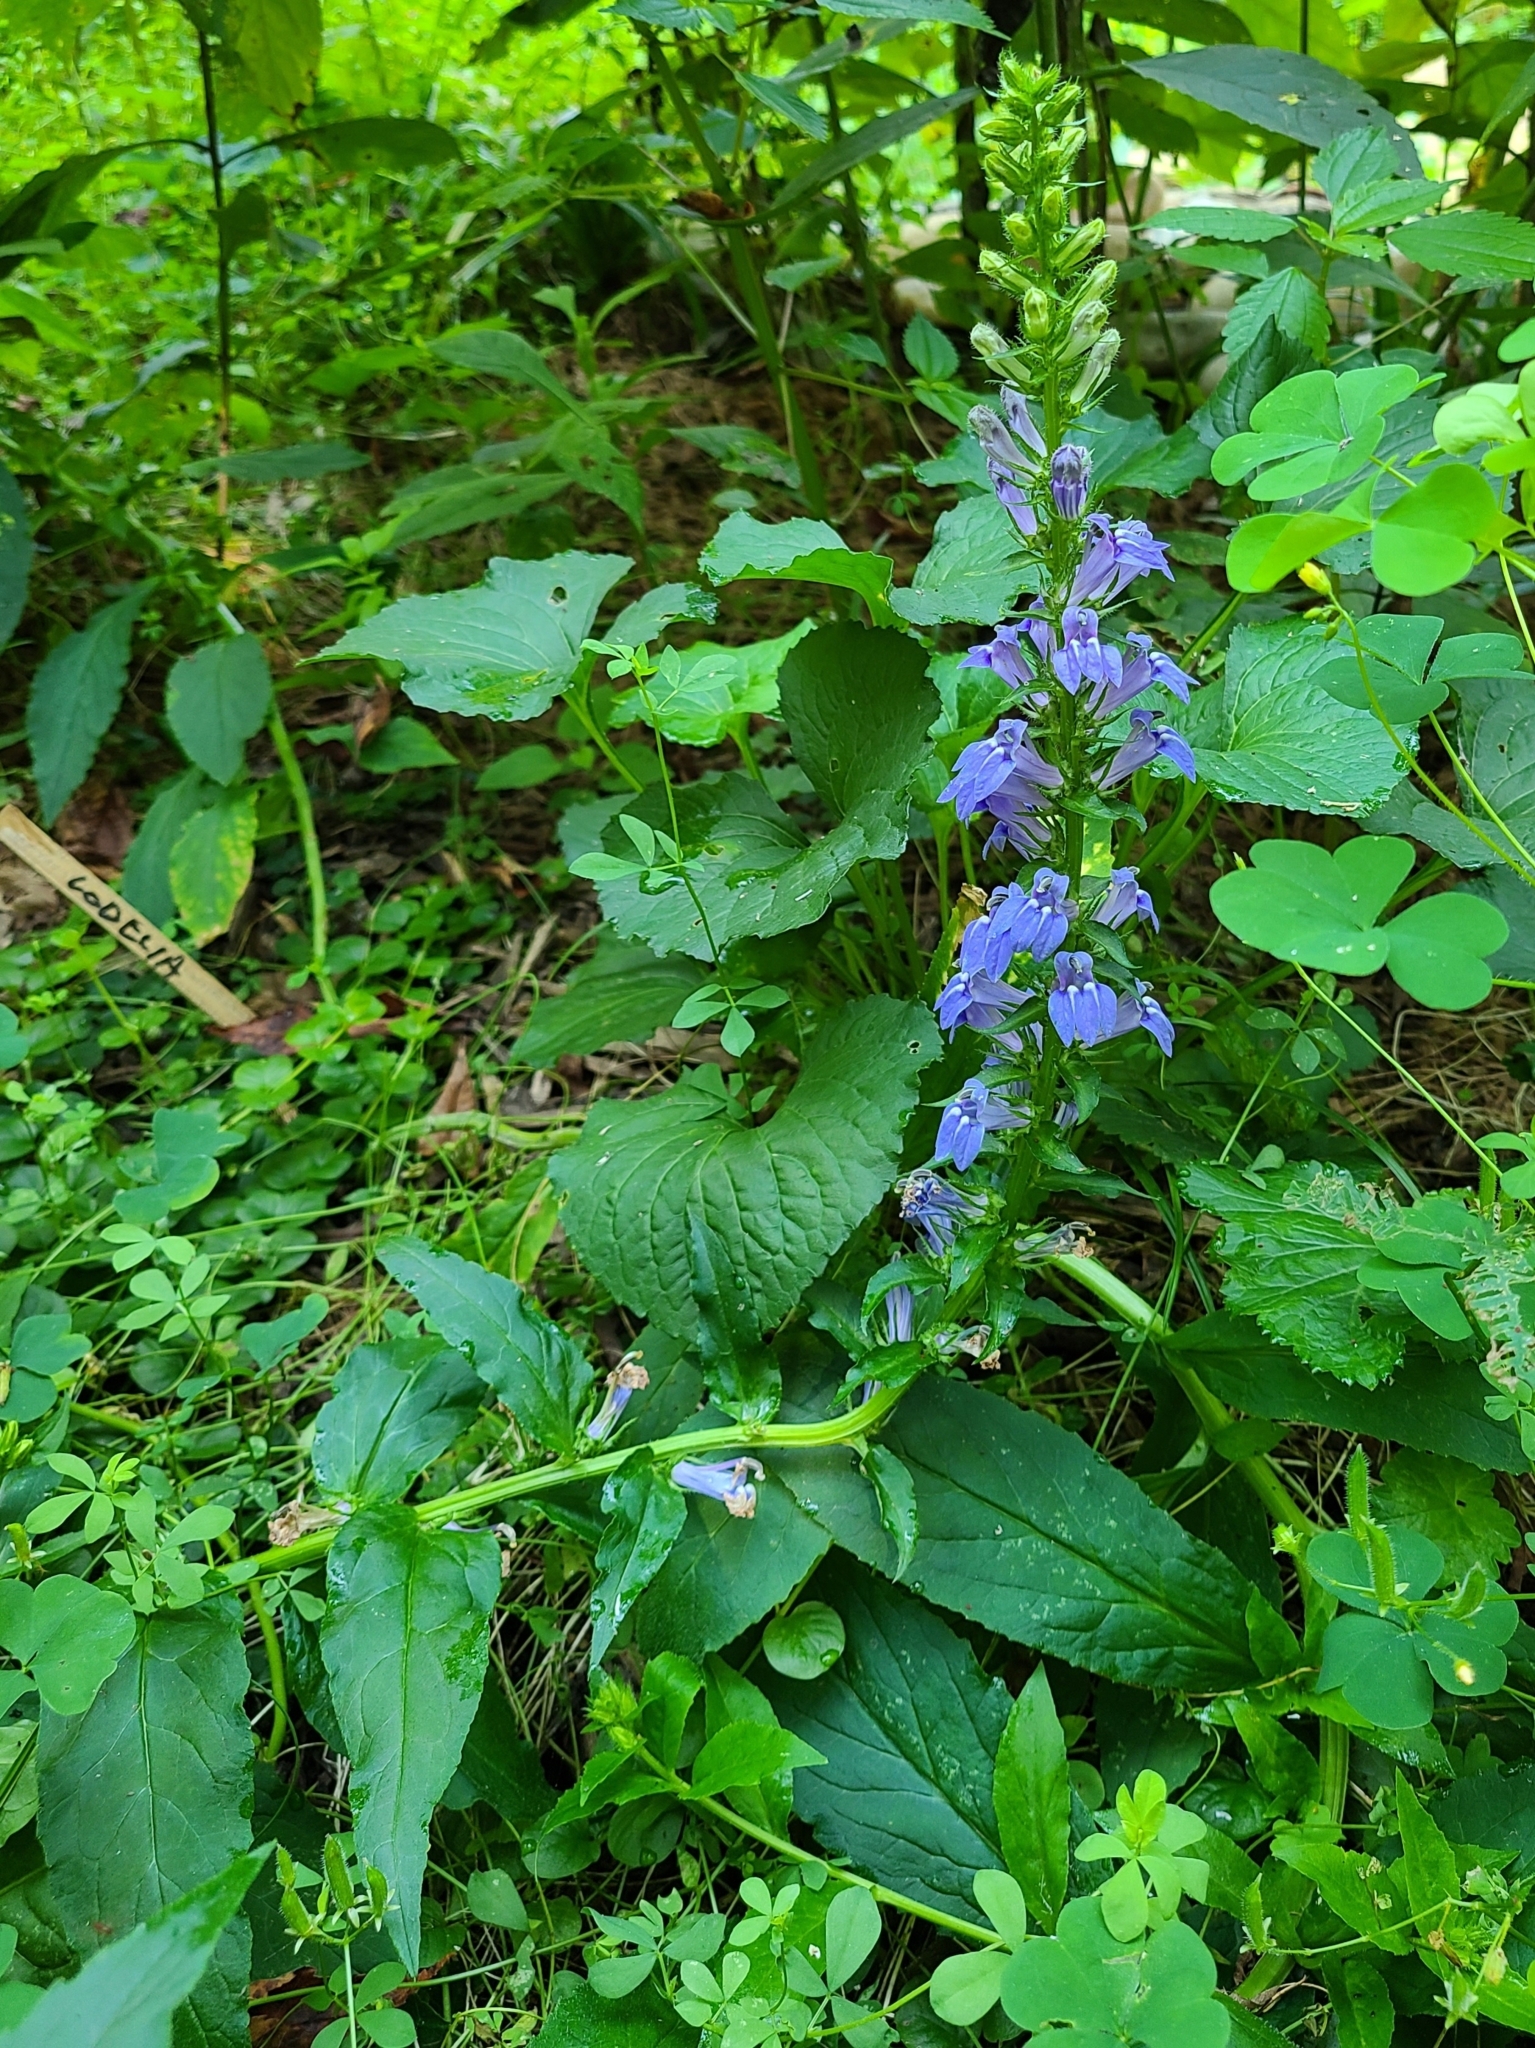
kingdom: Plantae
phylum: Tracheophyta
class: Magnoliopsida
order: Asterales
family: Campanulaceae
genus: Lobelia
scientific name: Lobelia siphilitica
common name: Great lobelia
